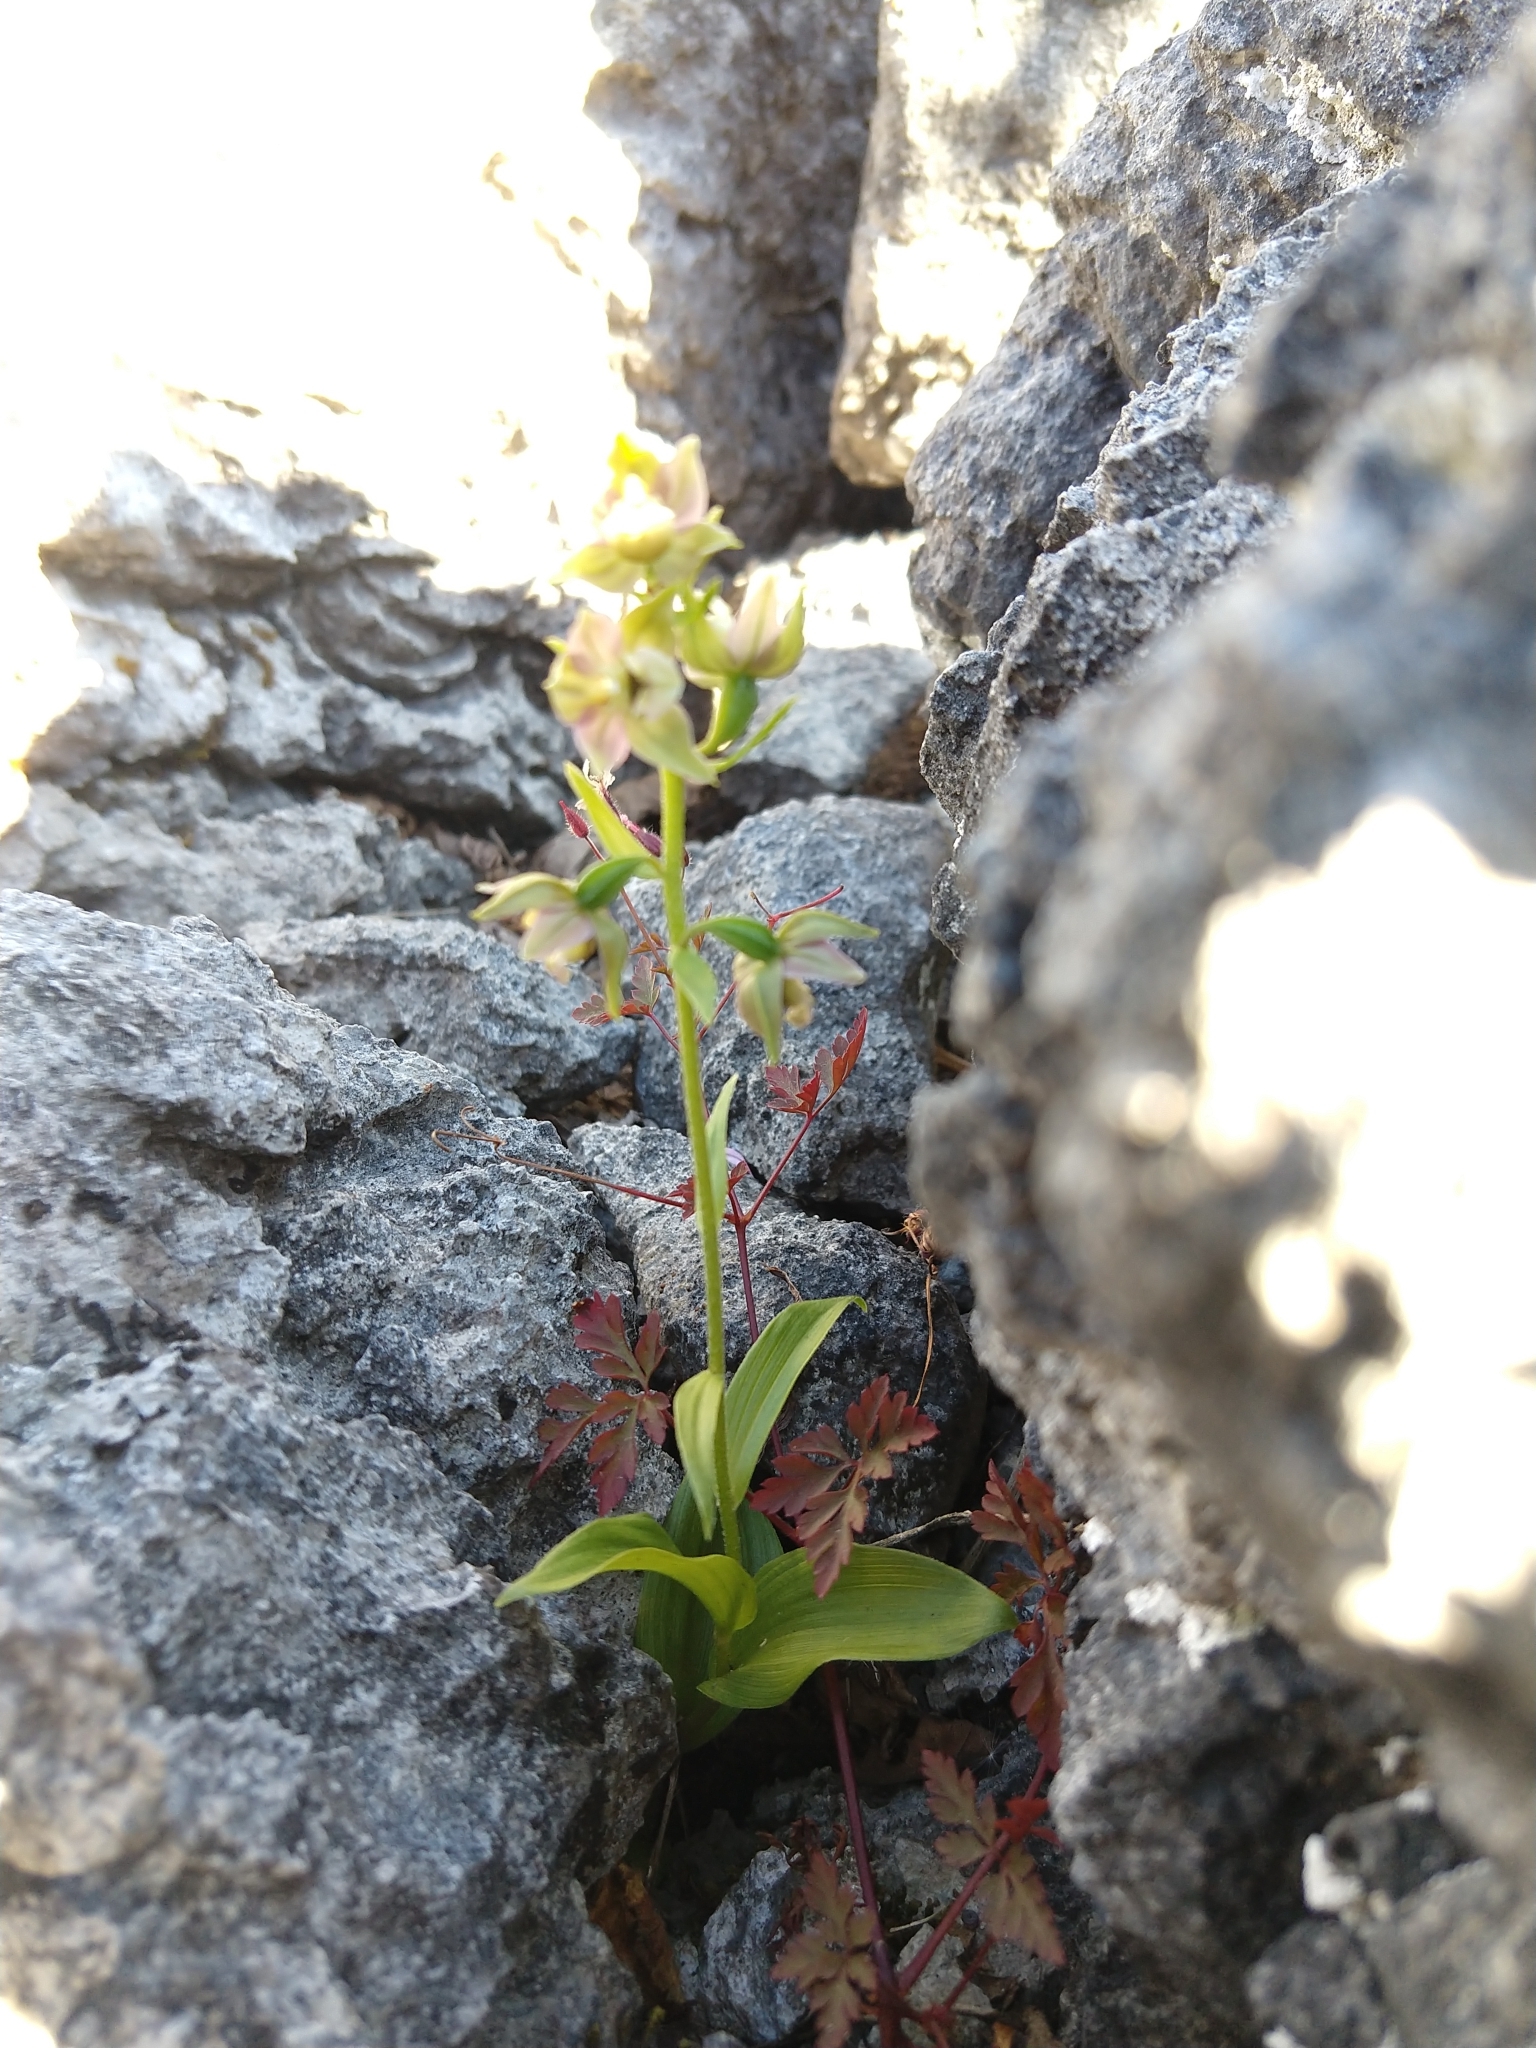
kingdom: Plantae
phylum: Tracheophyta
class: Liliopsida
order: Asparagales
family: Orchidaceae
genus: Epipactis
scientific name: Epipactis helleborine
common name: Broad-leaved helleborine
